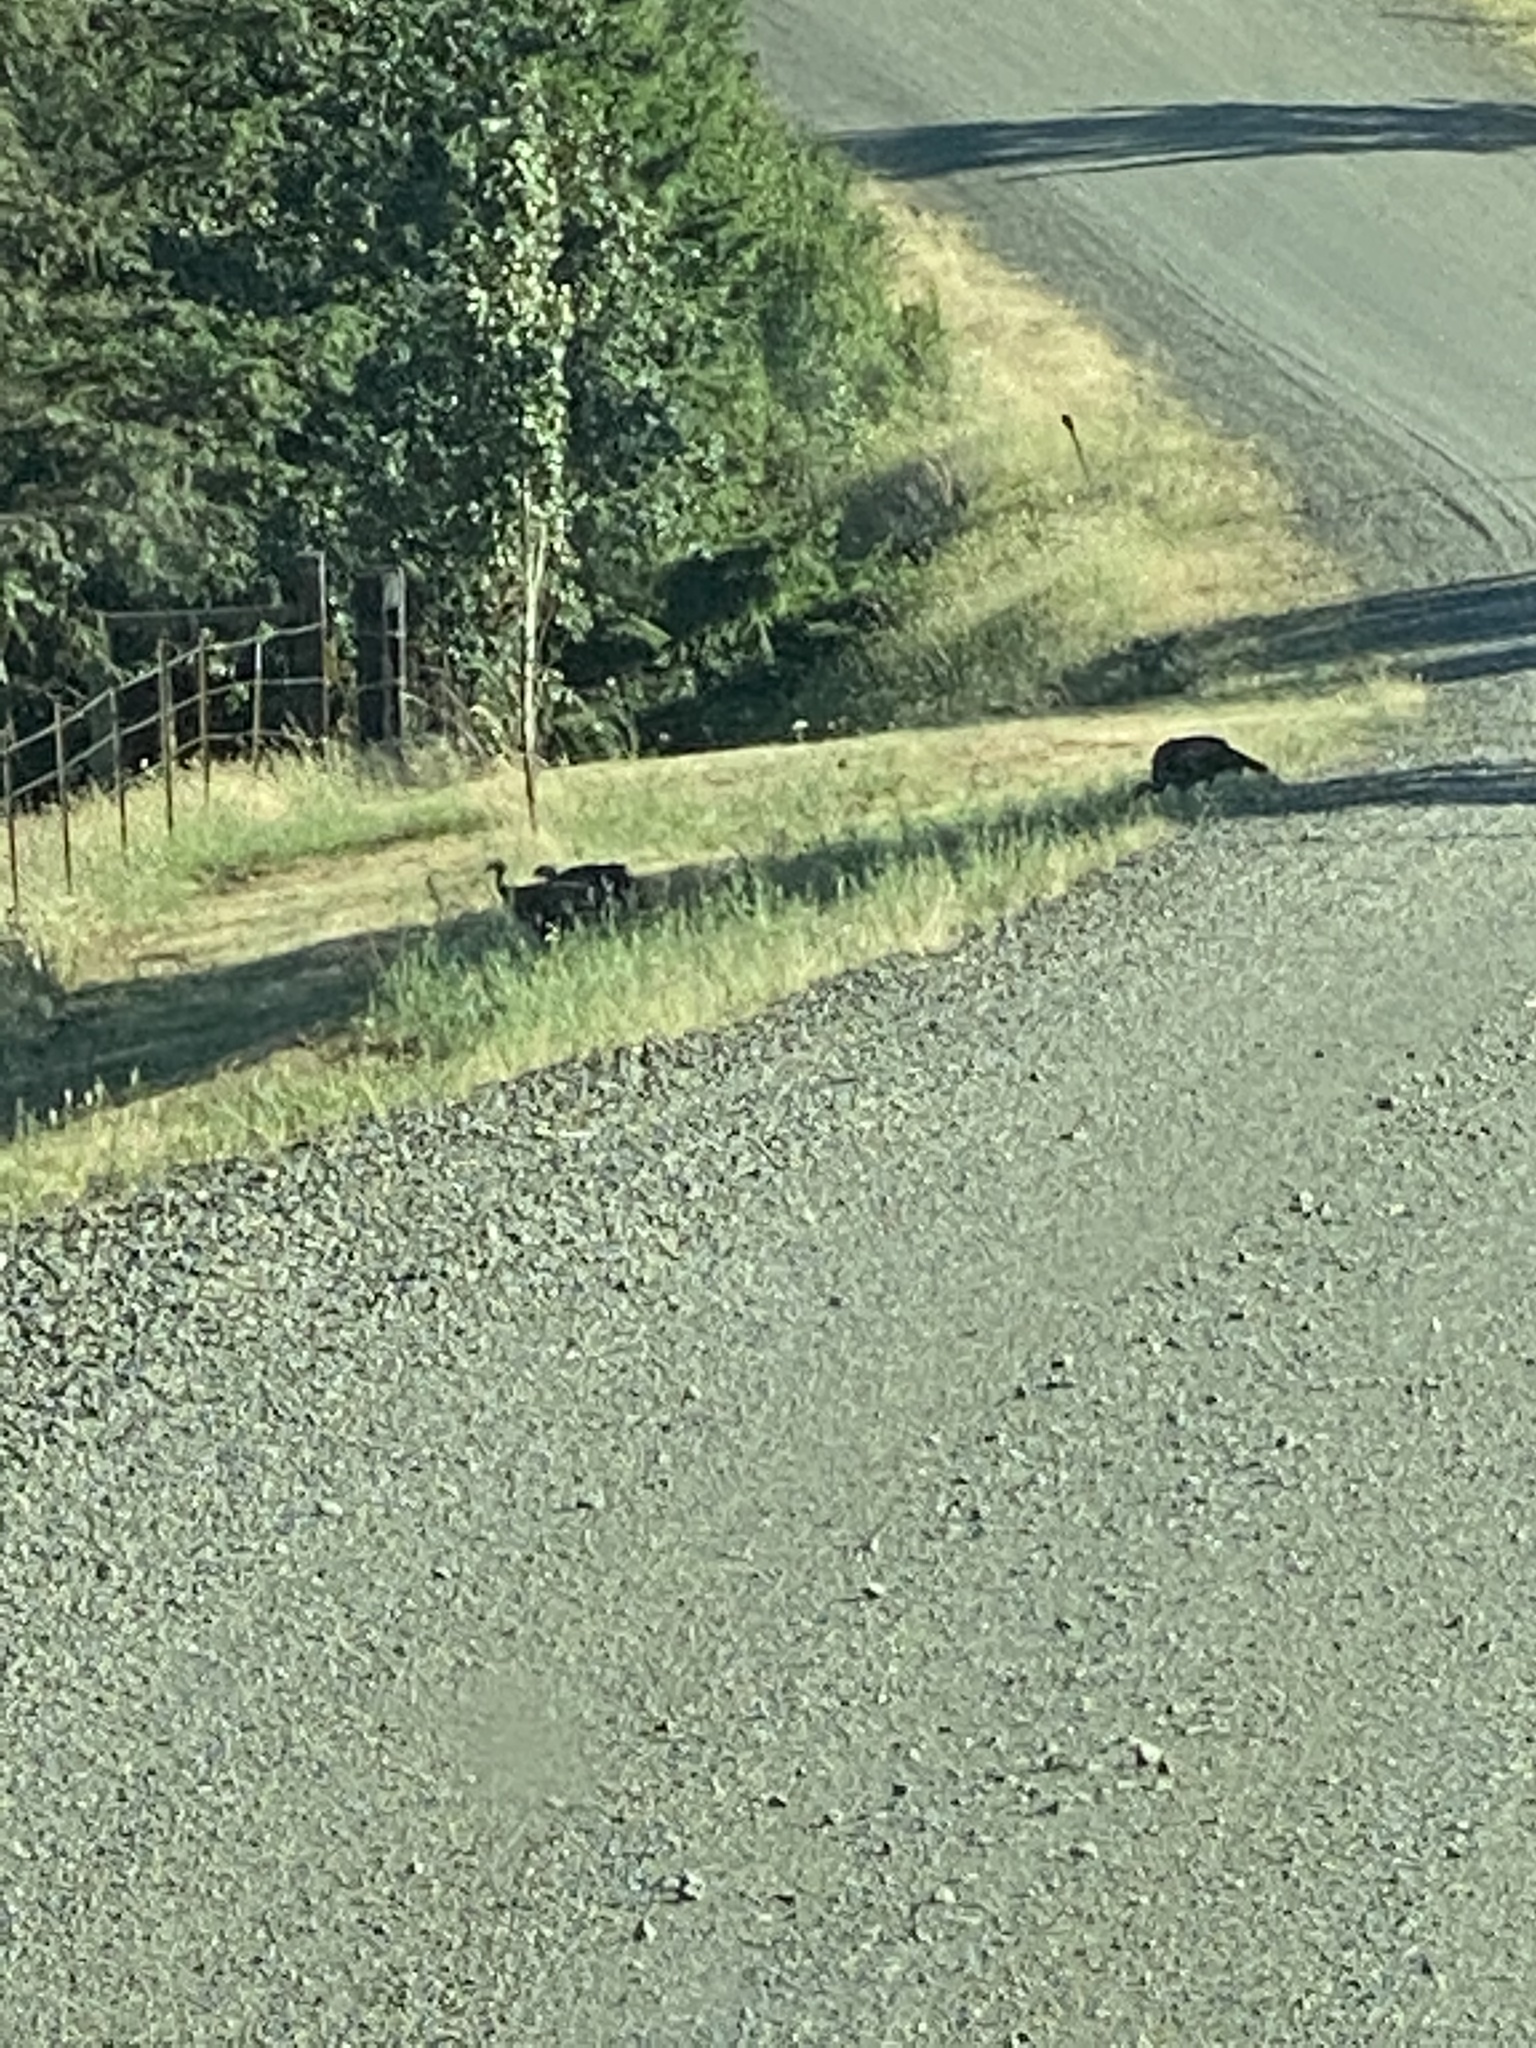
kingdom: Animalia
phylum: Chordata
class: Aves
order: Galliformes
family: Phasianidae
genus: Meleagris
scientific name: Meleagris gallopavo
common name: Wild turkey
